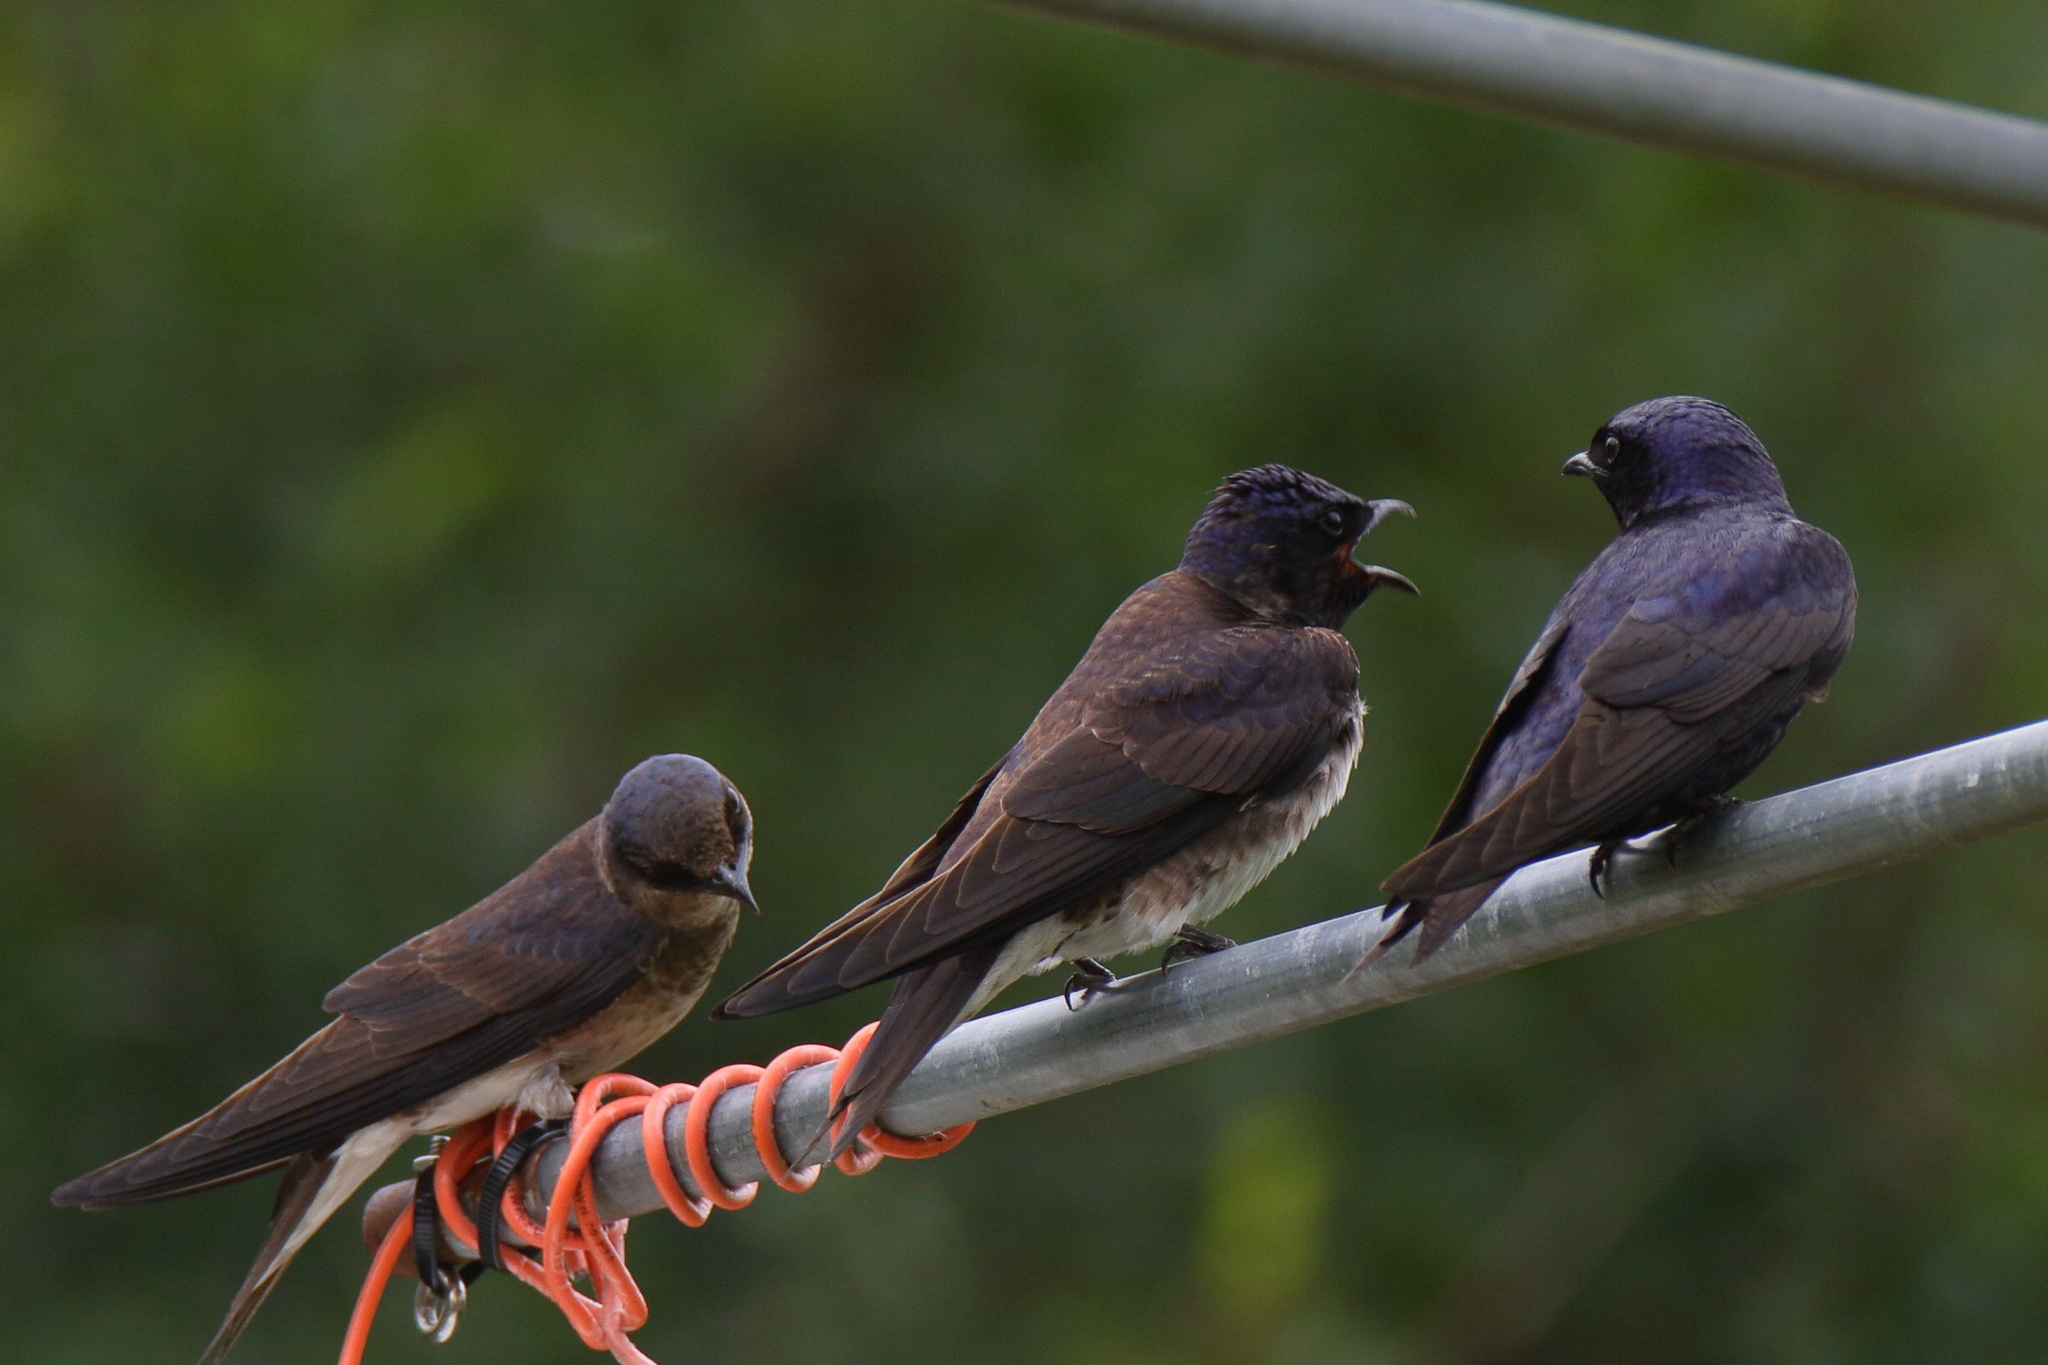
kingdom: Animalia
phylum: Chordata
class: Aves
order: Passeriformes
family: Hirundinidae
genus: Progne
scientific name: Progne subis
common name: Purple martin
